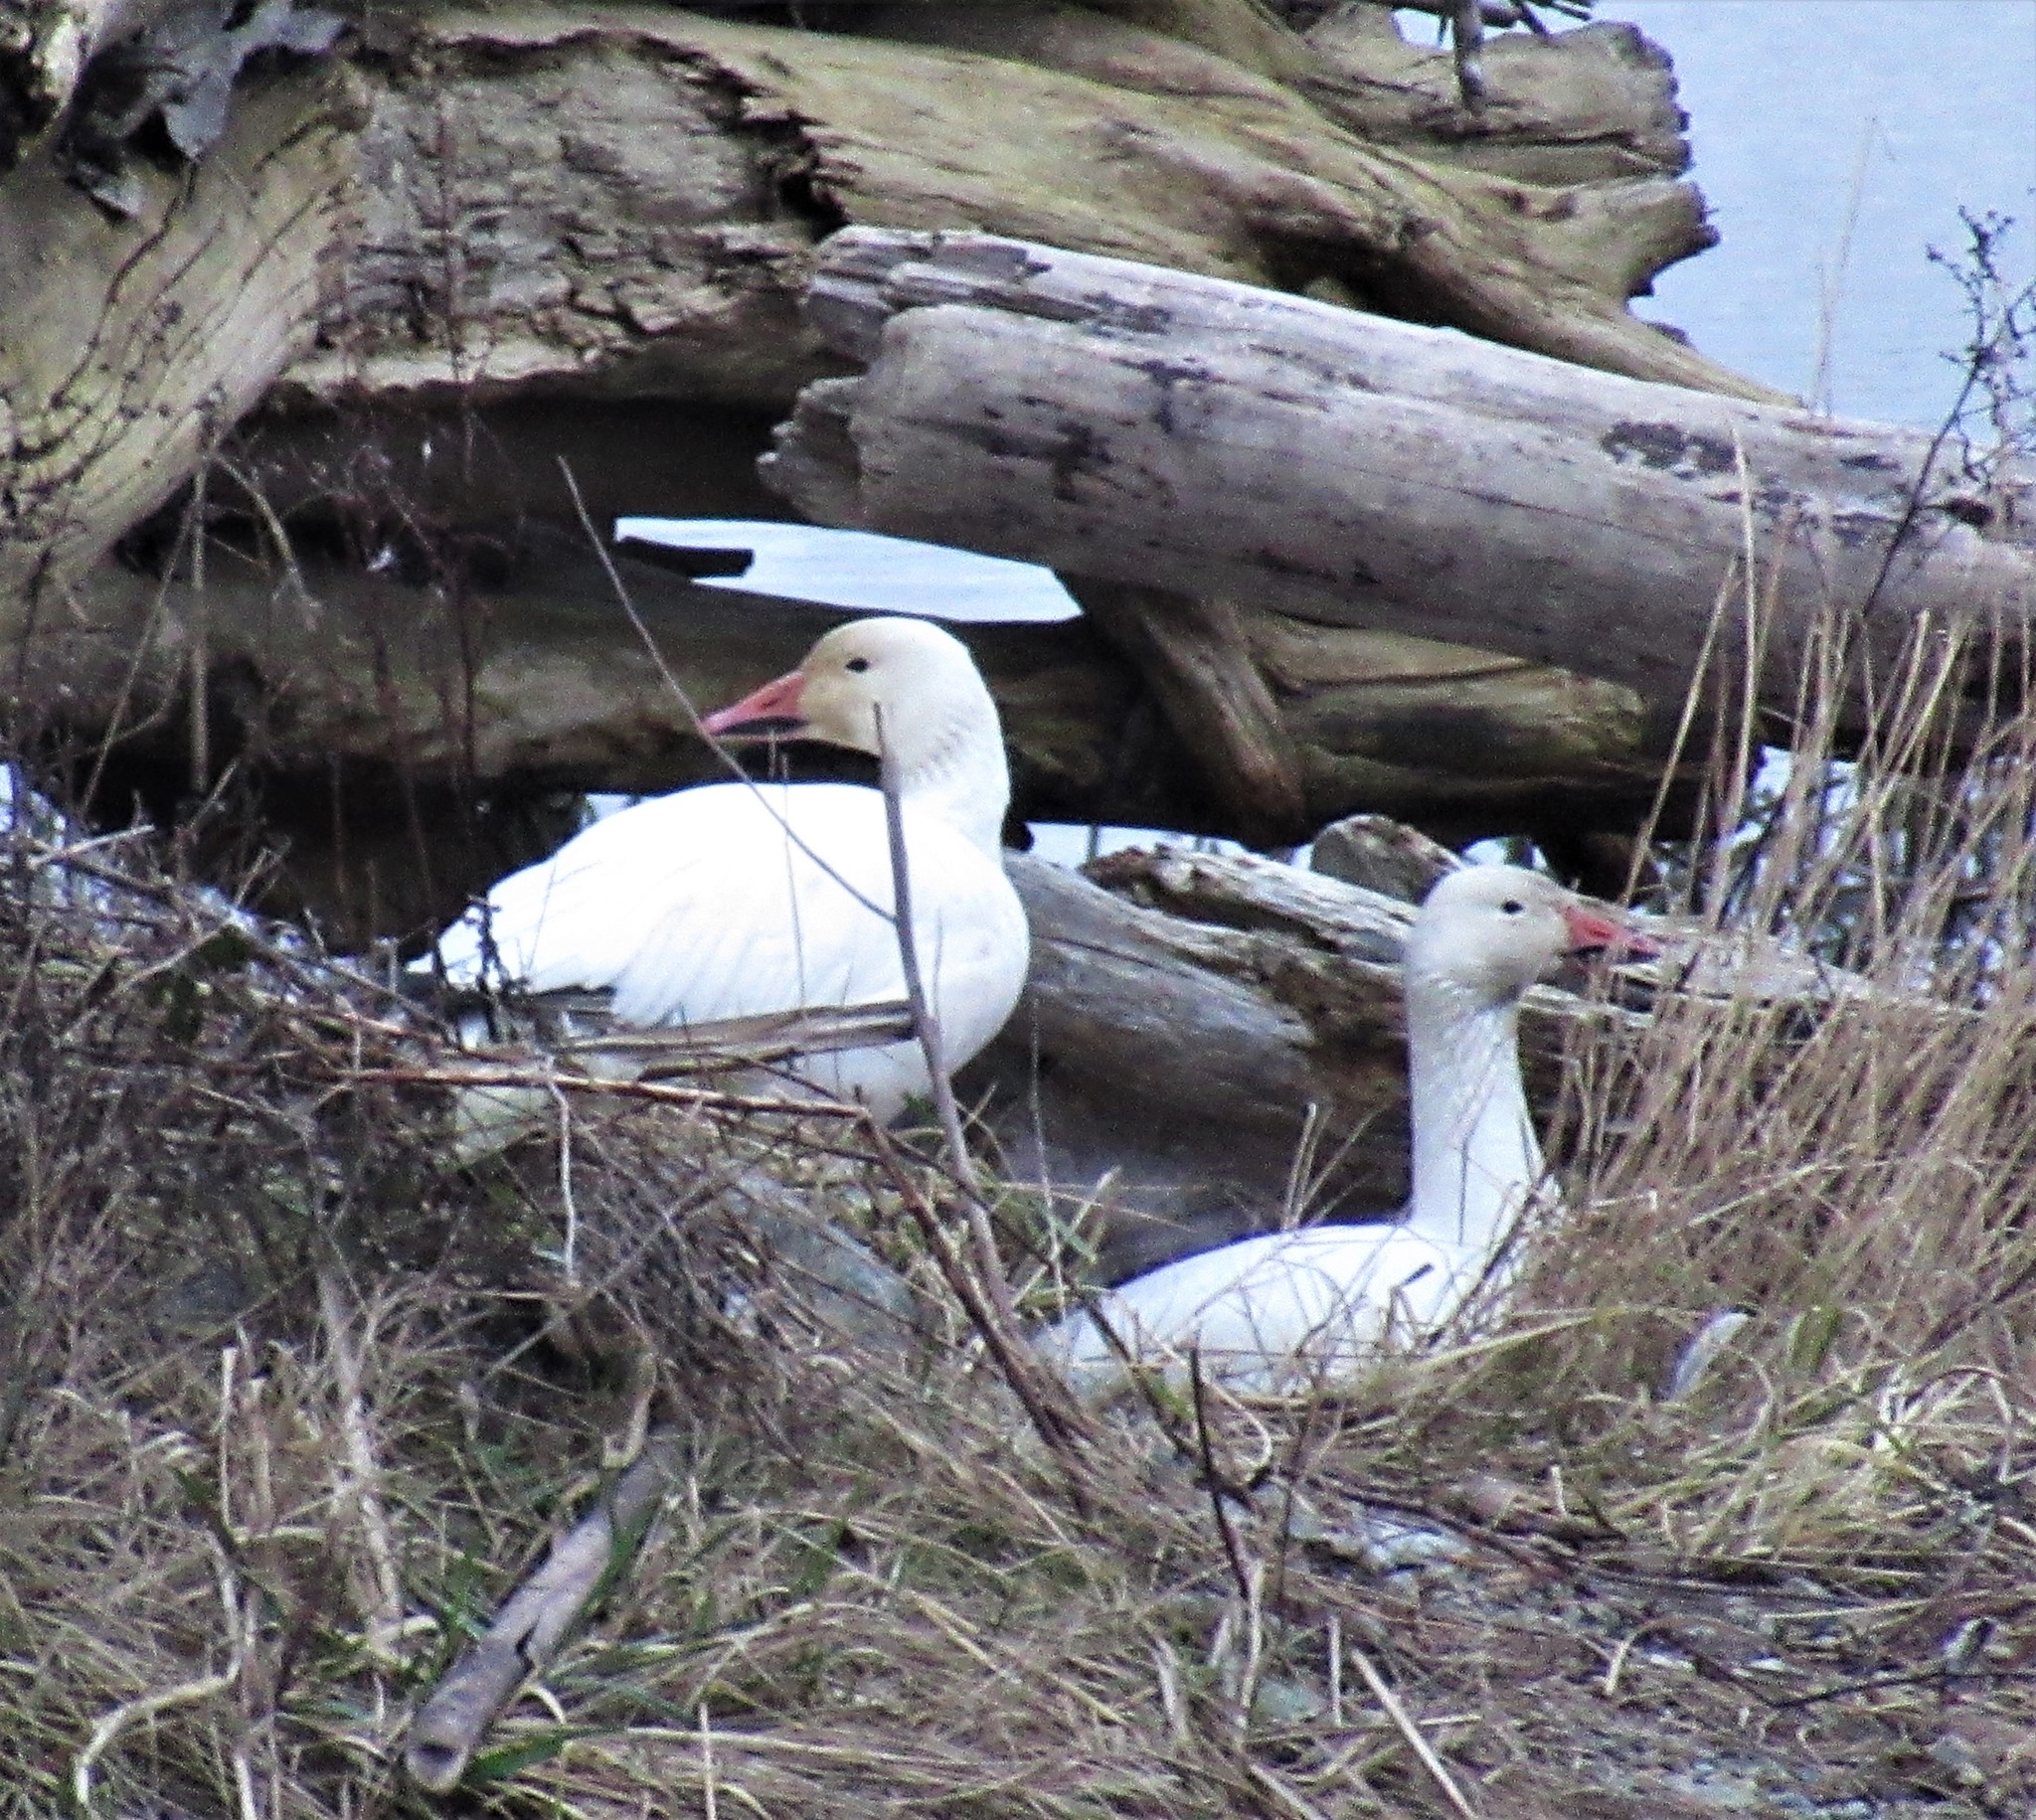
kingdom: Animalia
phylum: Chordata
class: Aves
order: Anseriformes
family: Anatidae
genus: Anser
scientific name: Anser caerulescens
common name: Snow goose
